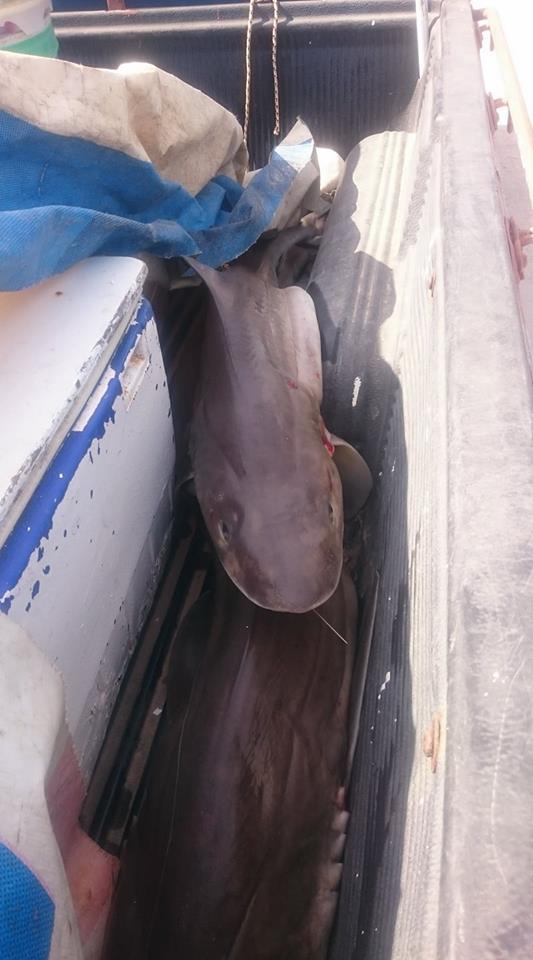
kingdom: Animalia
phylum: Chordata
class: Elasmobranchii
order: Carcharhiniformes
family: Triakidae
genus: Mustelus
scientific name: Mustelus mustelus
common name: Smooth-hound
